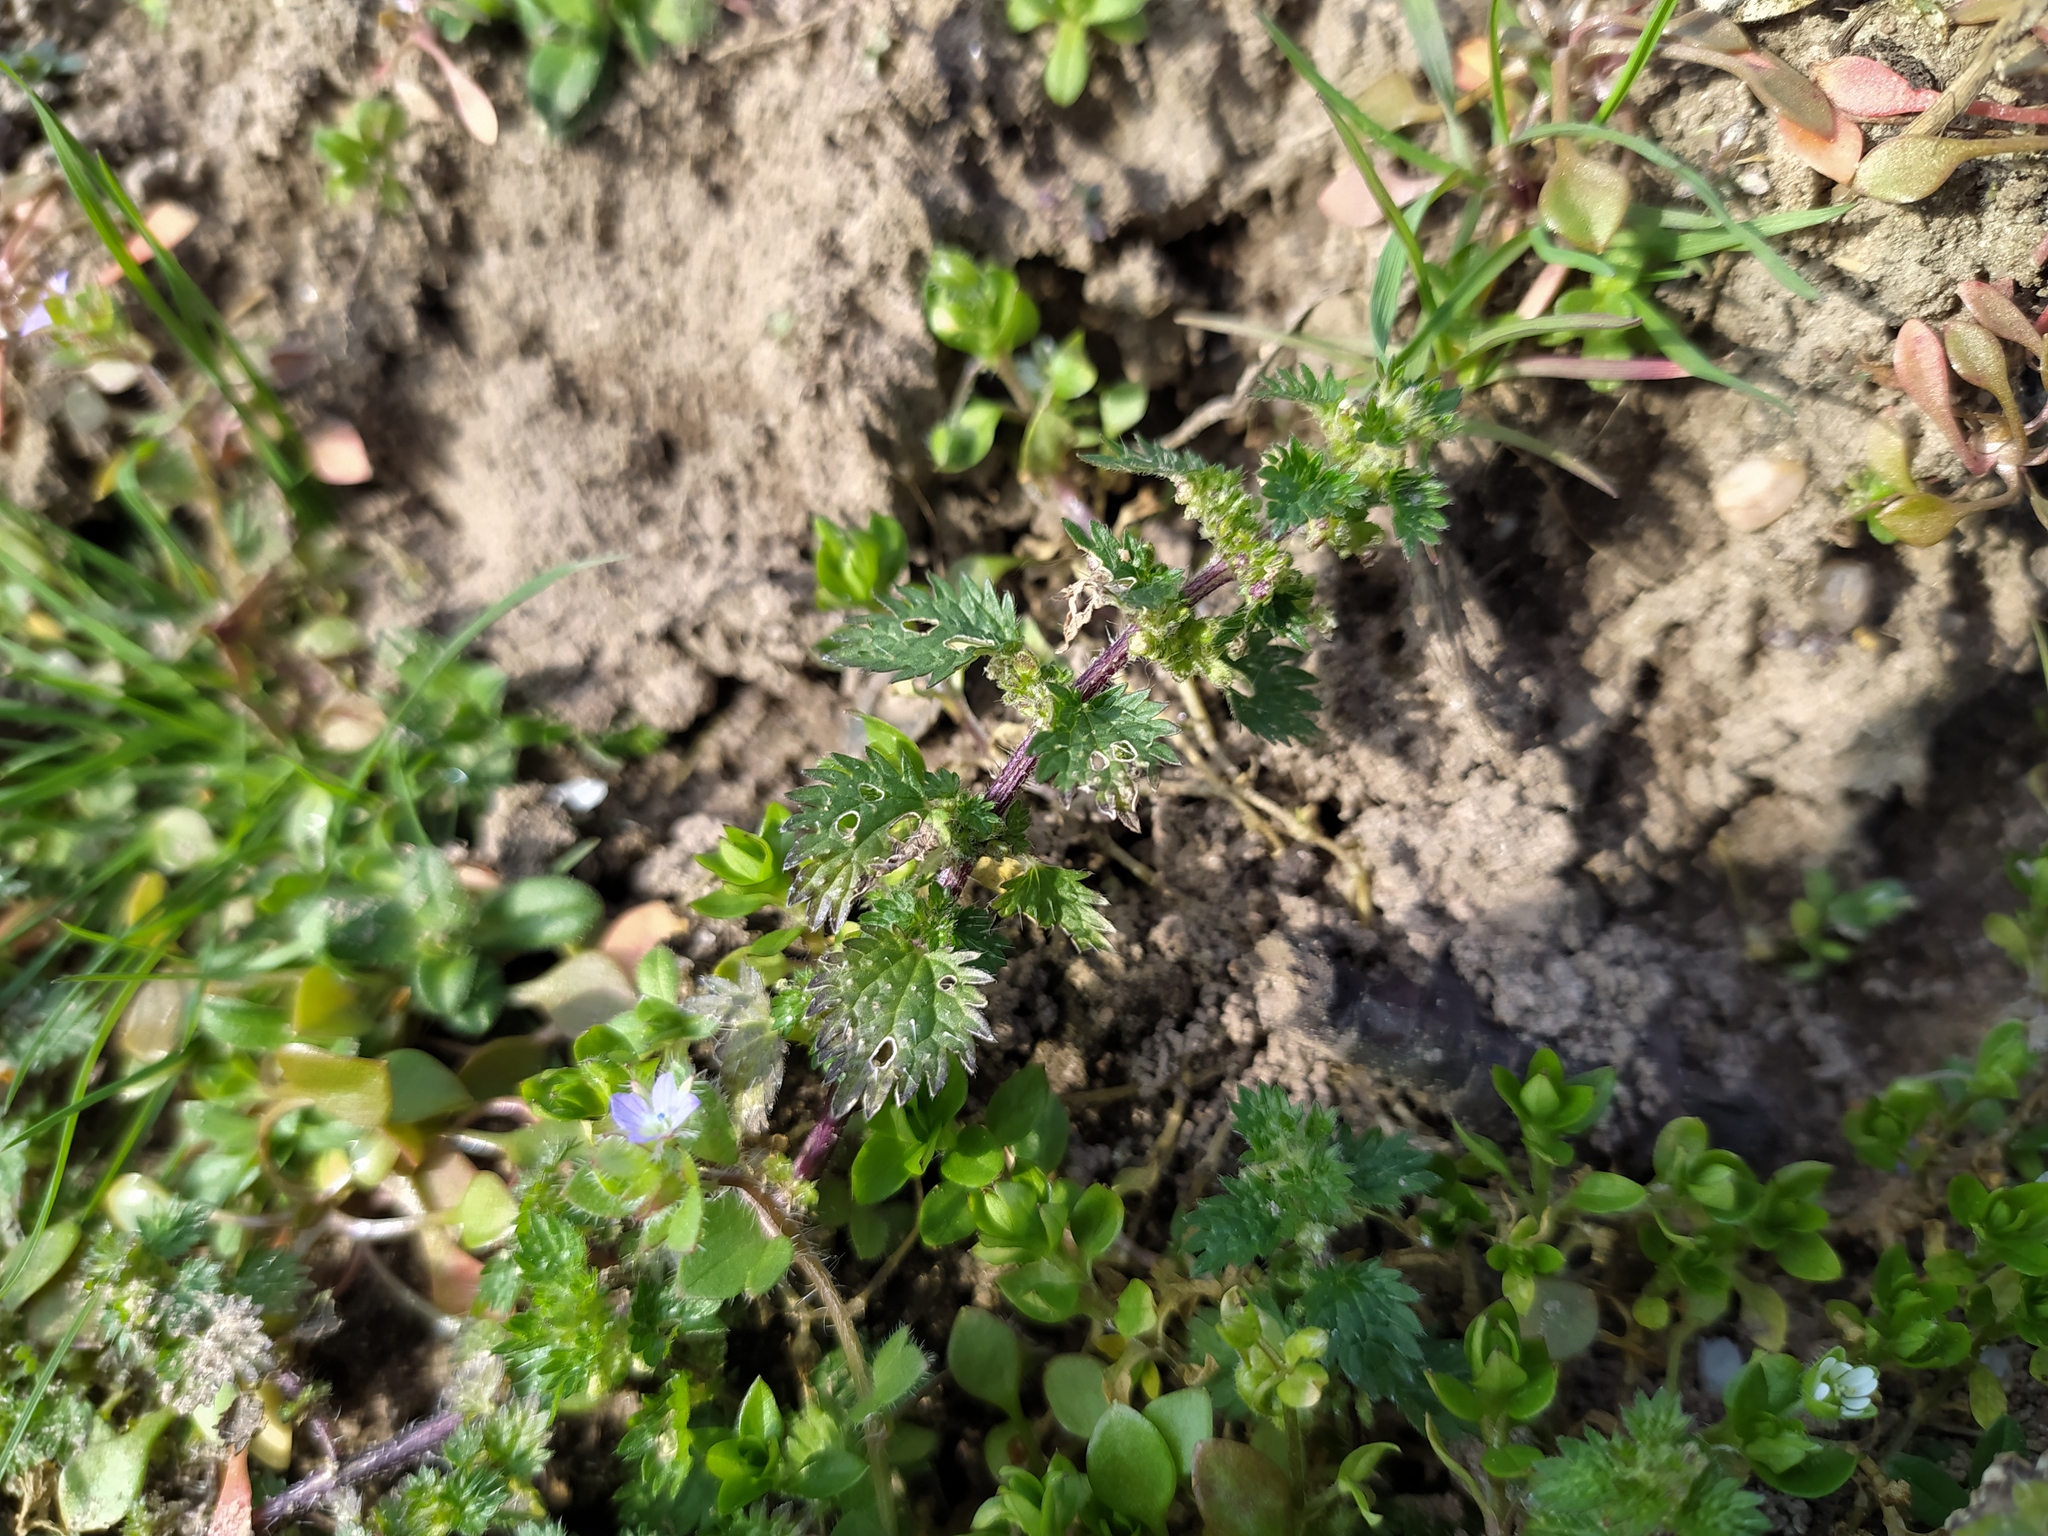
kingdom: Plantae
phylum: Tracheophyta
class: Magnoliopsida
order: Rosales
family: Urticaceae
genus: Urtica
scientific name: Urtica urens
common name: Dwarf nettle
